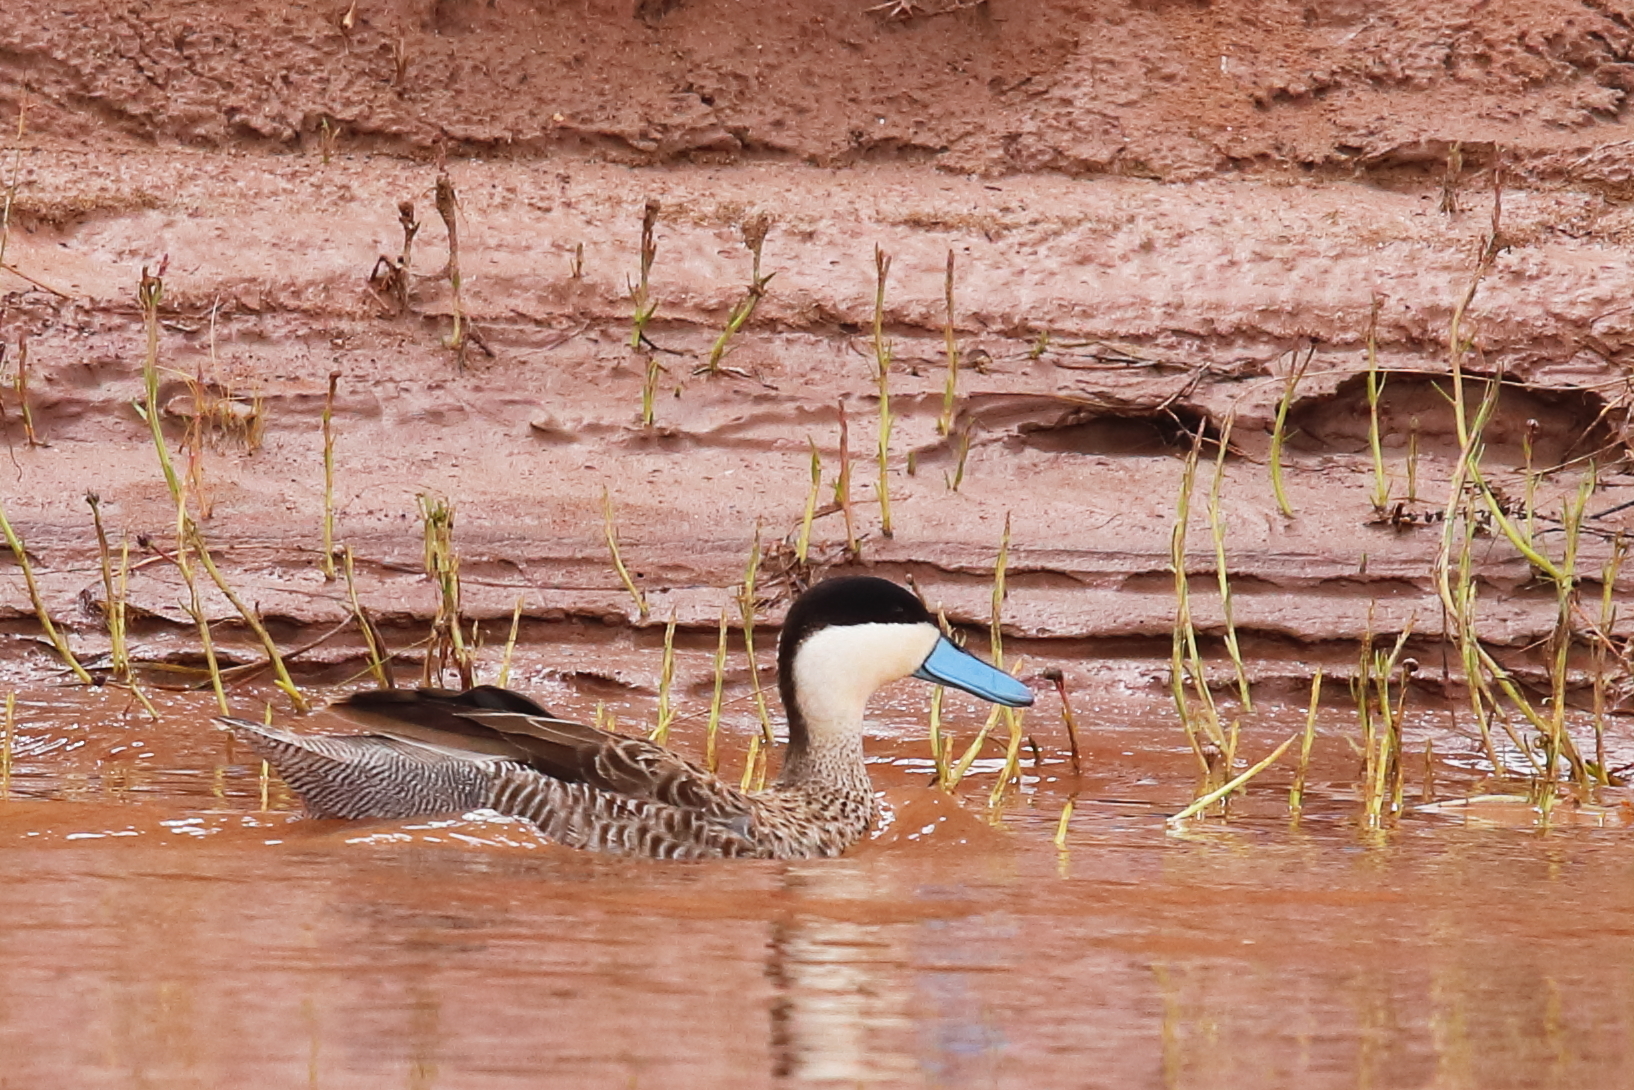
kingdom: Animalia
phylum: Chordata
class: Aves
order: Anseriformes
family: Anatidae
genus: Spatula
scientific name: Spatula puna
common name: Puna teal
